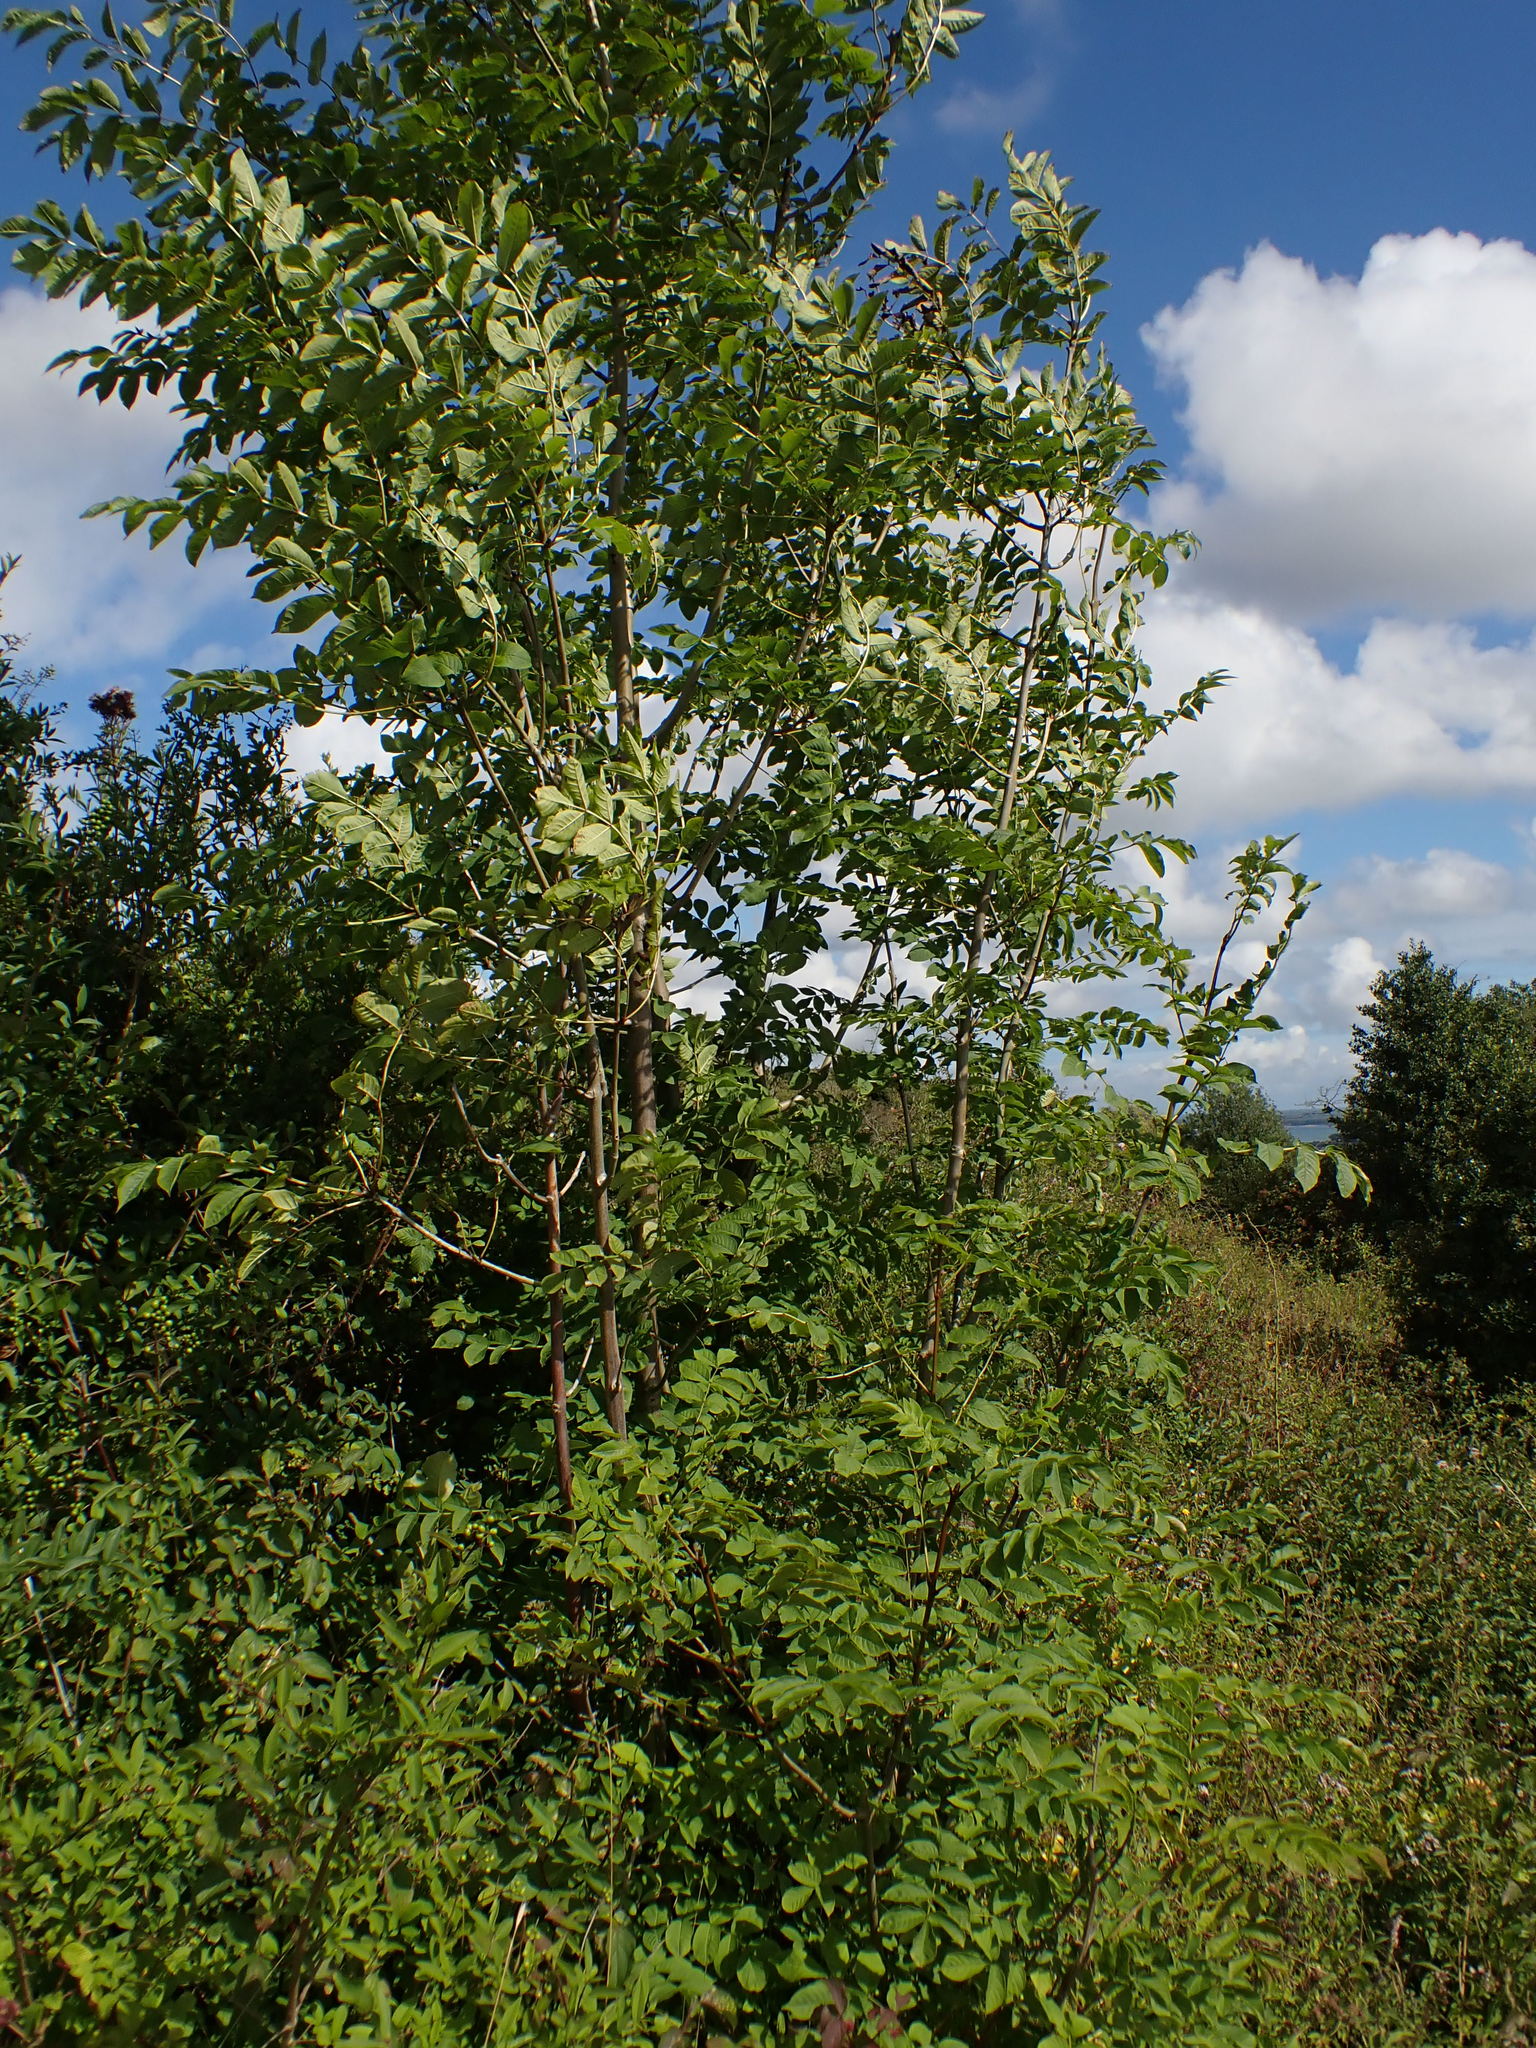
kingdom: Plantae
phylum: Tracheophyta
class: Magnoliopsida
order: Lamiales
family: Oleaceae
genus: Fraxinus
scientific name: Fraxinus excelsior
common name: European ash
